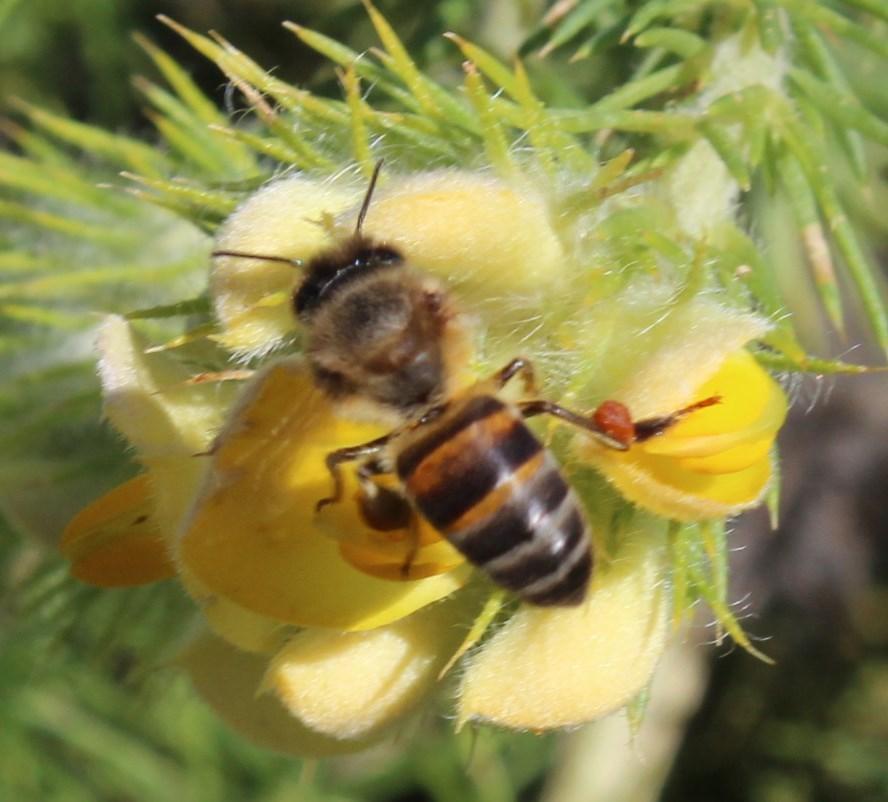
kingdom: Animalia
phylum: Arthropoda
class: Insecta
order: Hymenoptera
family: Apidae
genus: Apis
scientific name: Apis mellifera
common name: Honey bee
